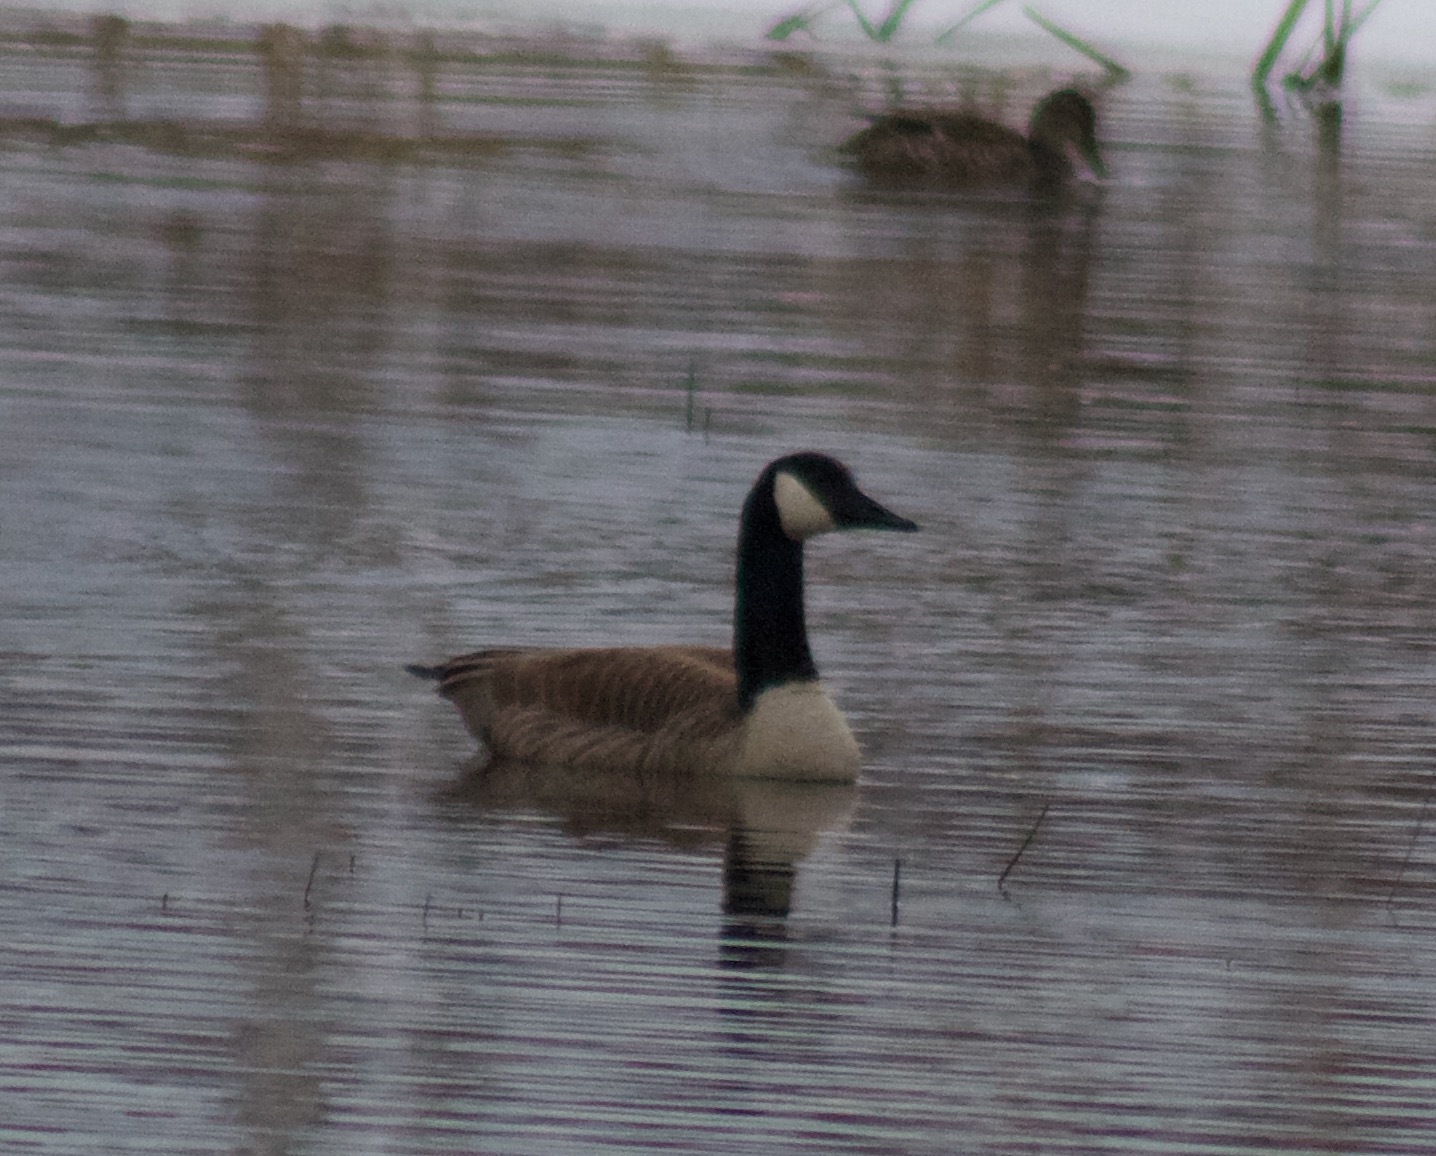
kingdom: Animalia
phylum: Chordata
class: Aves
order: Anseriformes
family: Anatidae
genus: Branta
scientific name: Branta canadensis
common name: Canada goose
